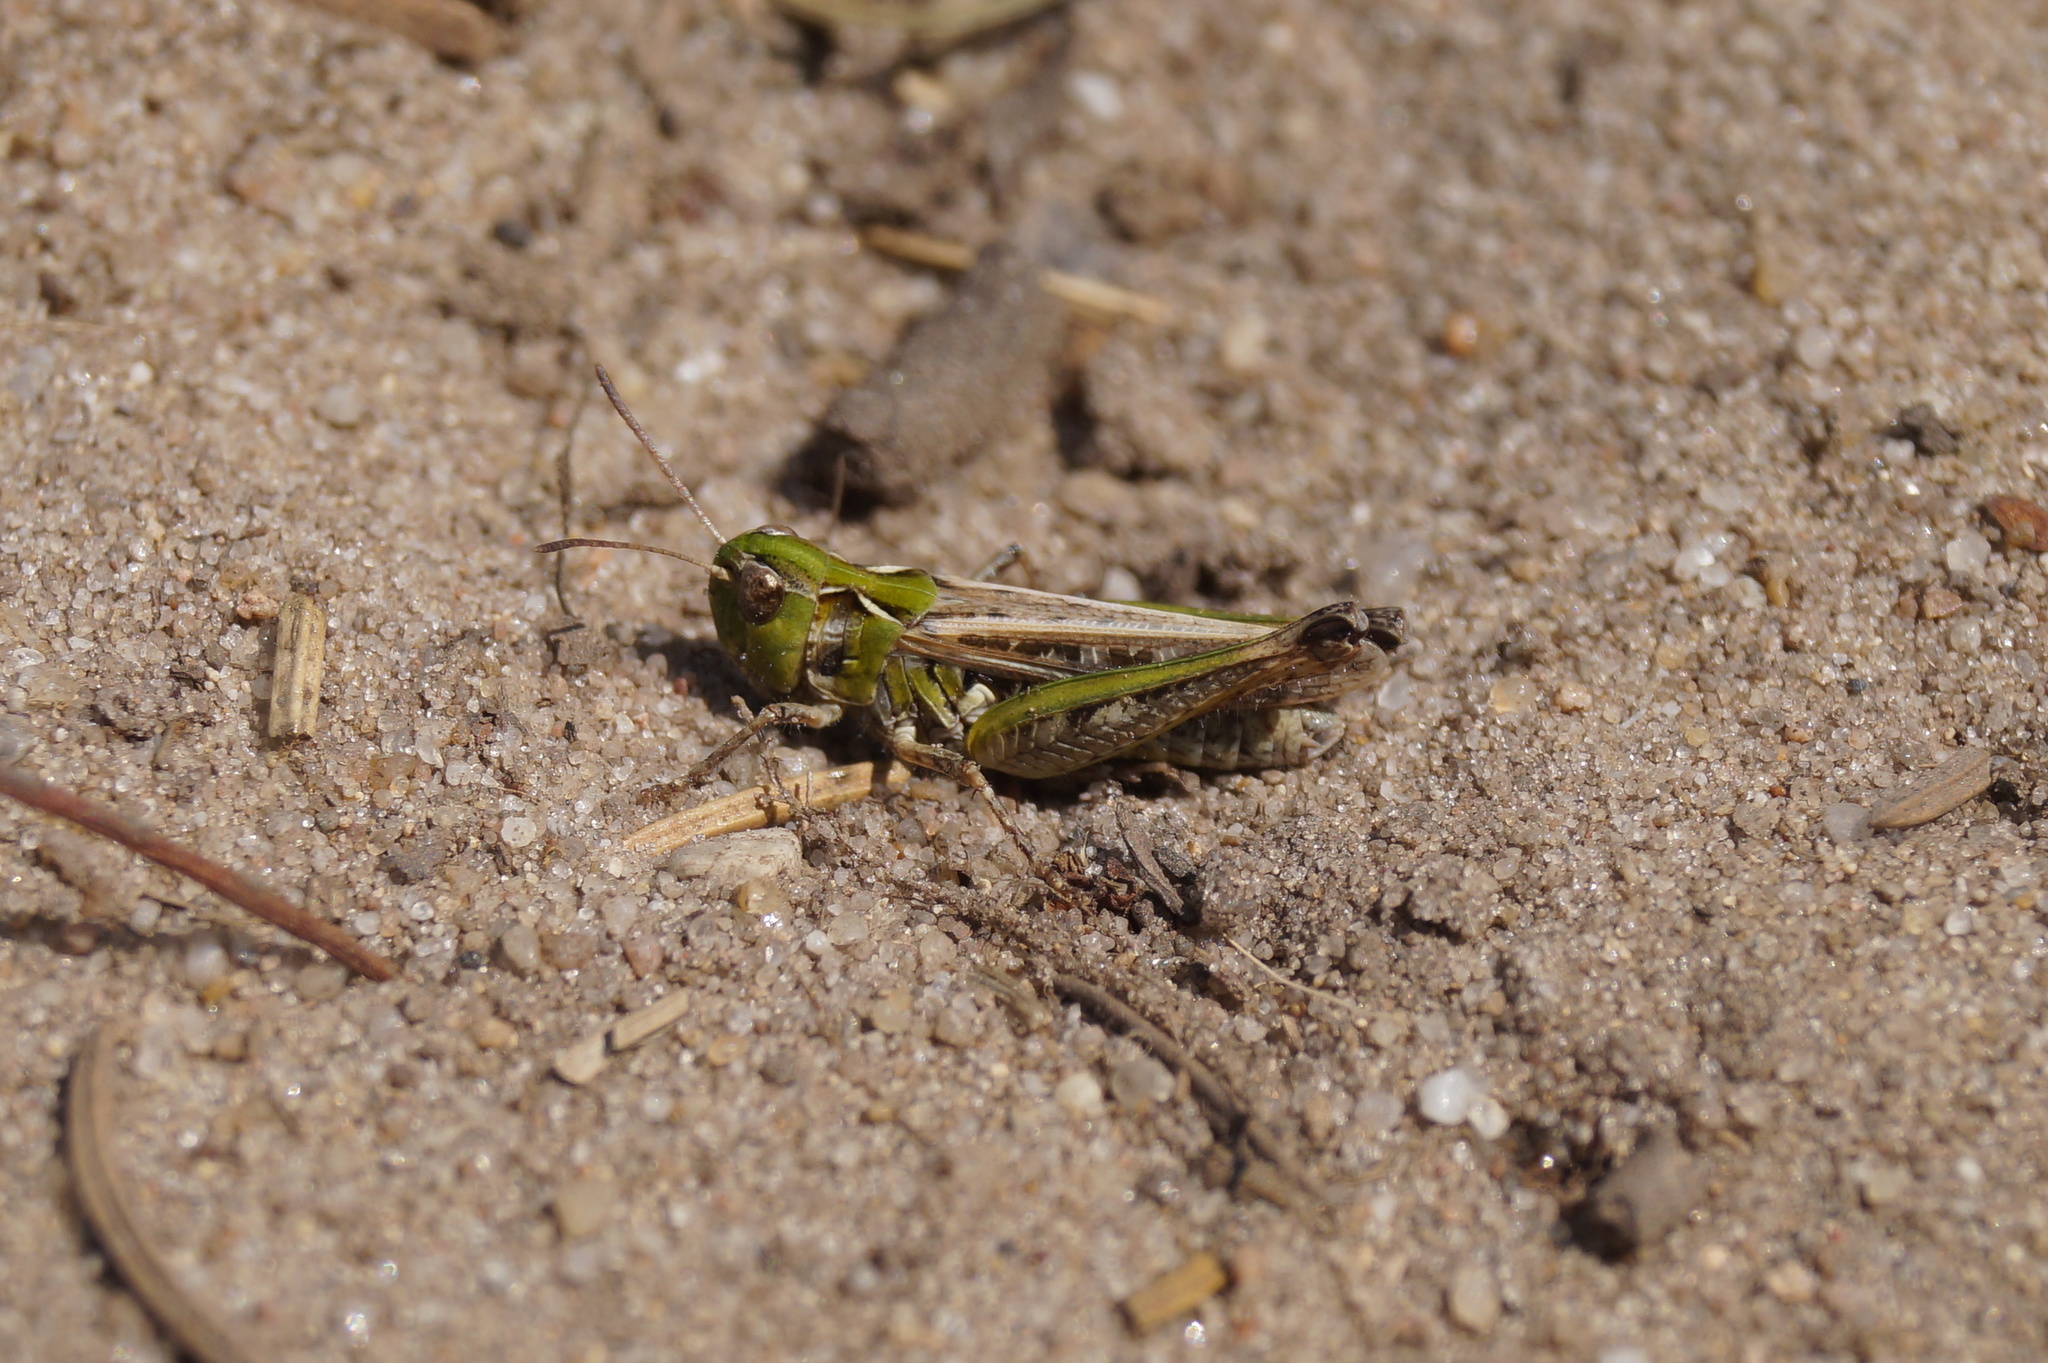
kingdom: Animalia
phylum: Arthropoda
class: Insecta
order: Orthoptera
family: Acrididae
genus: Myrmeleotettix
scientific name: Myrmeleotettix maculatus
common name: Mottled grasshopper
